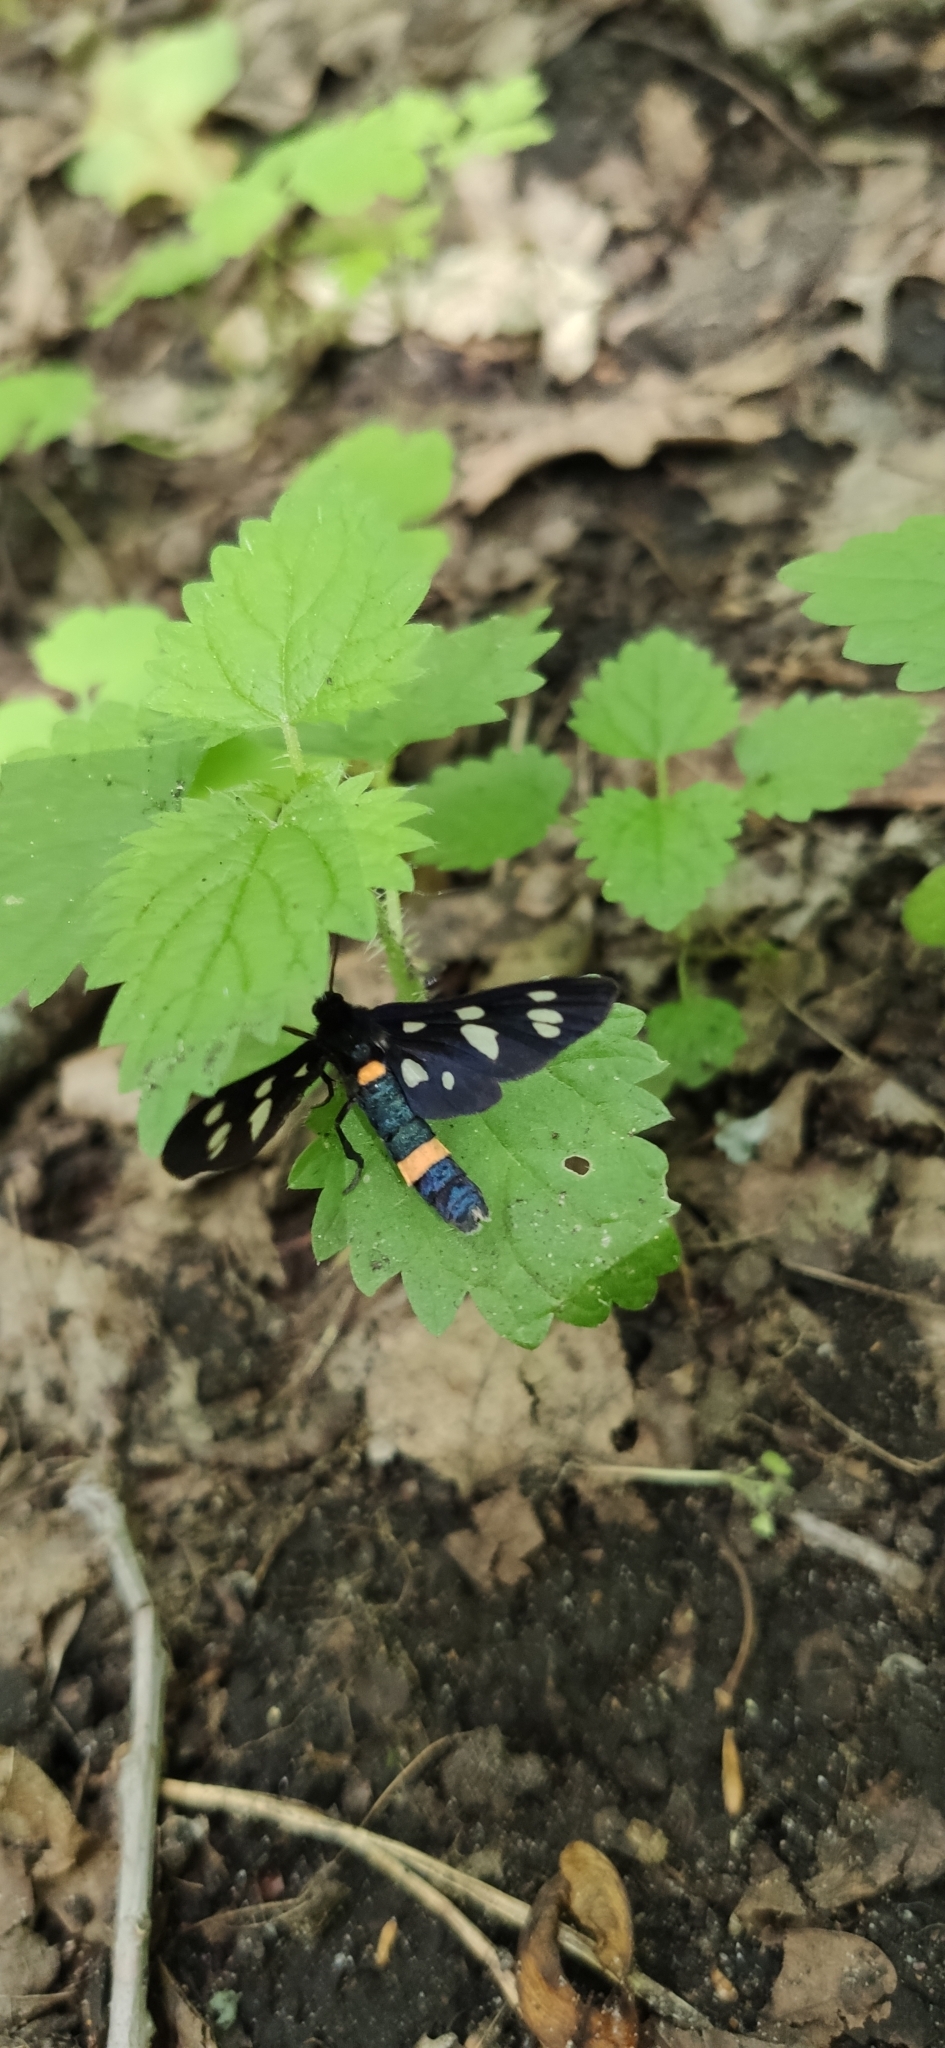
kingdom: Animalia
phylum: Arthropoda
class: Insecta
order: Lepidoptera
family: Erebidae
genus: Amata
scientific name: Amata nigricornis
